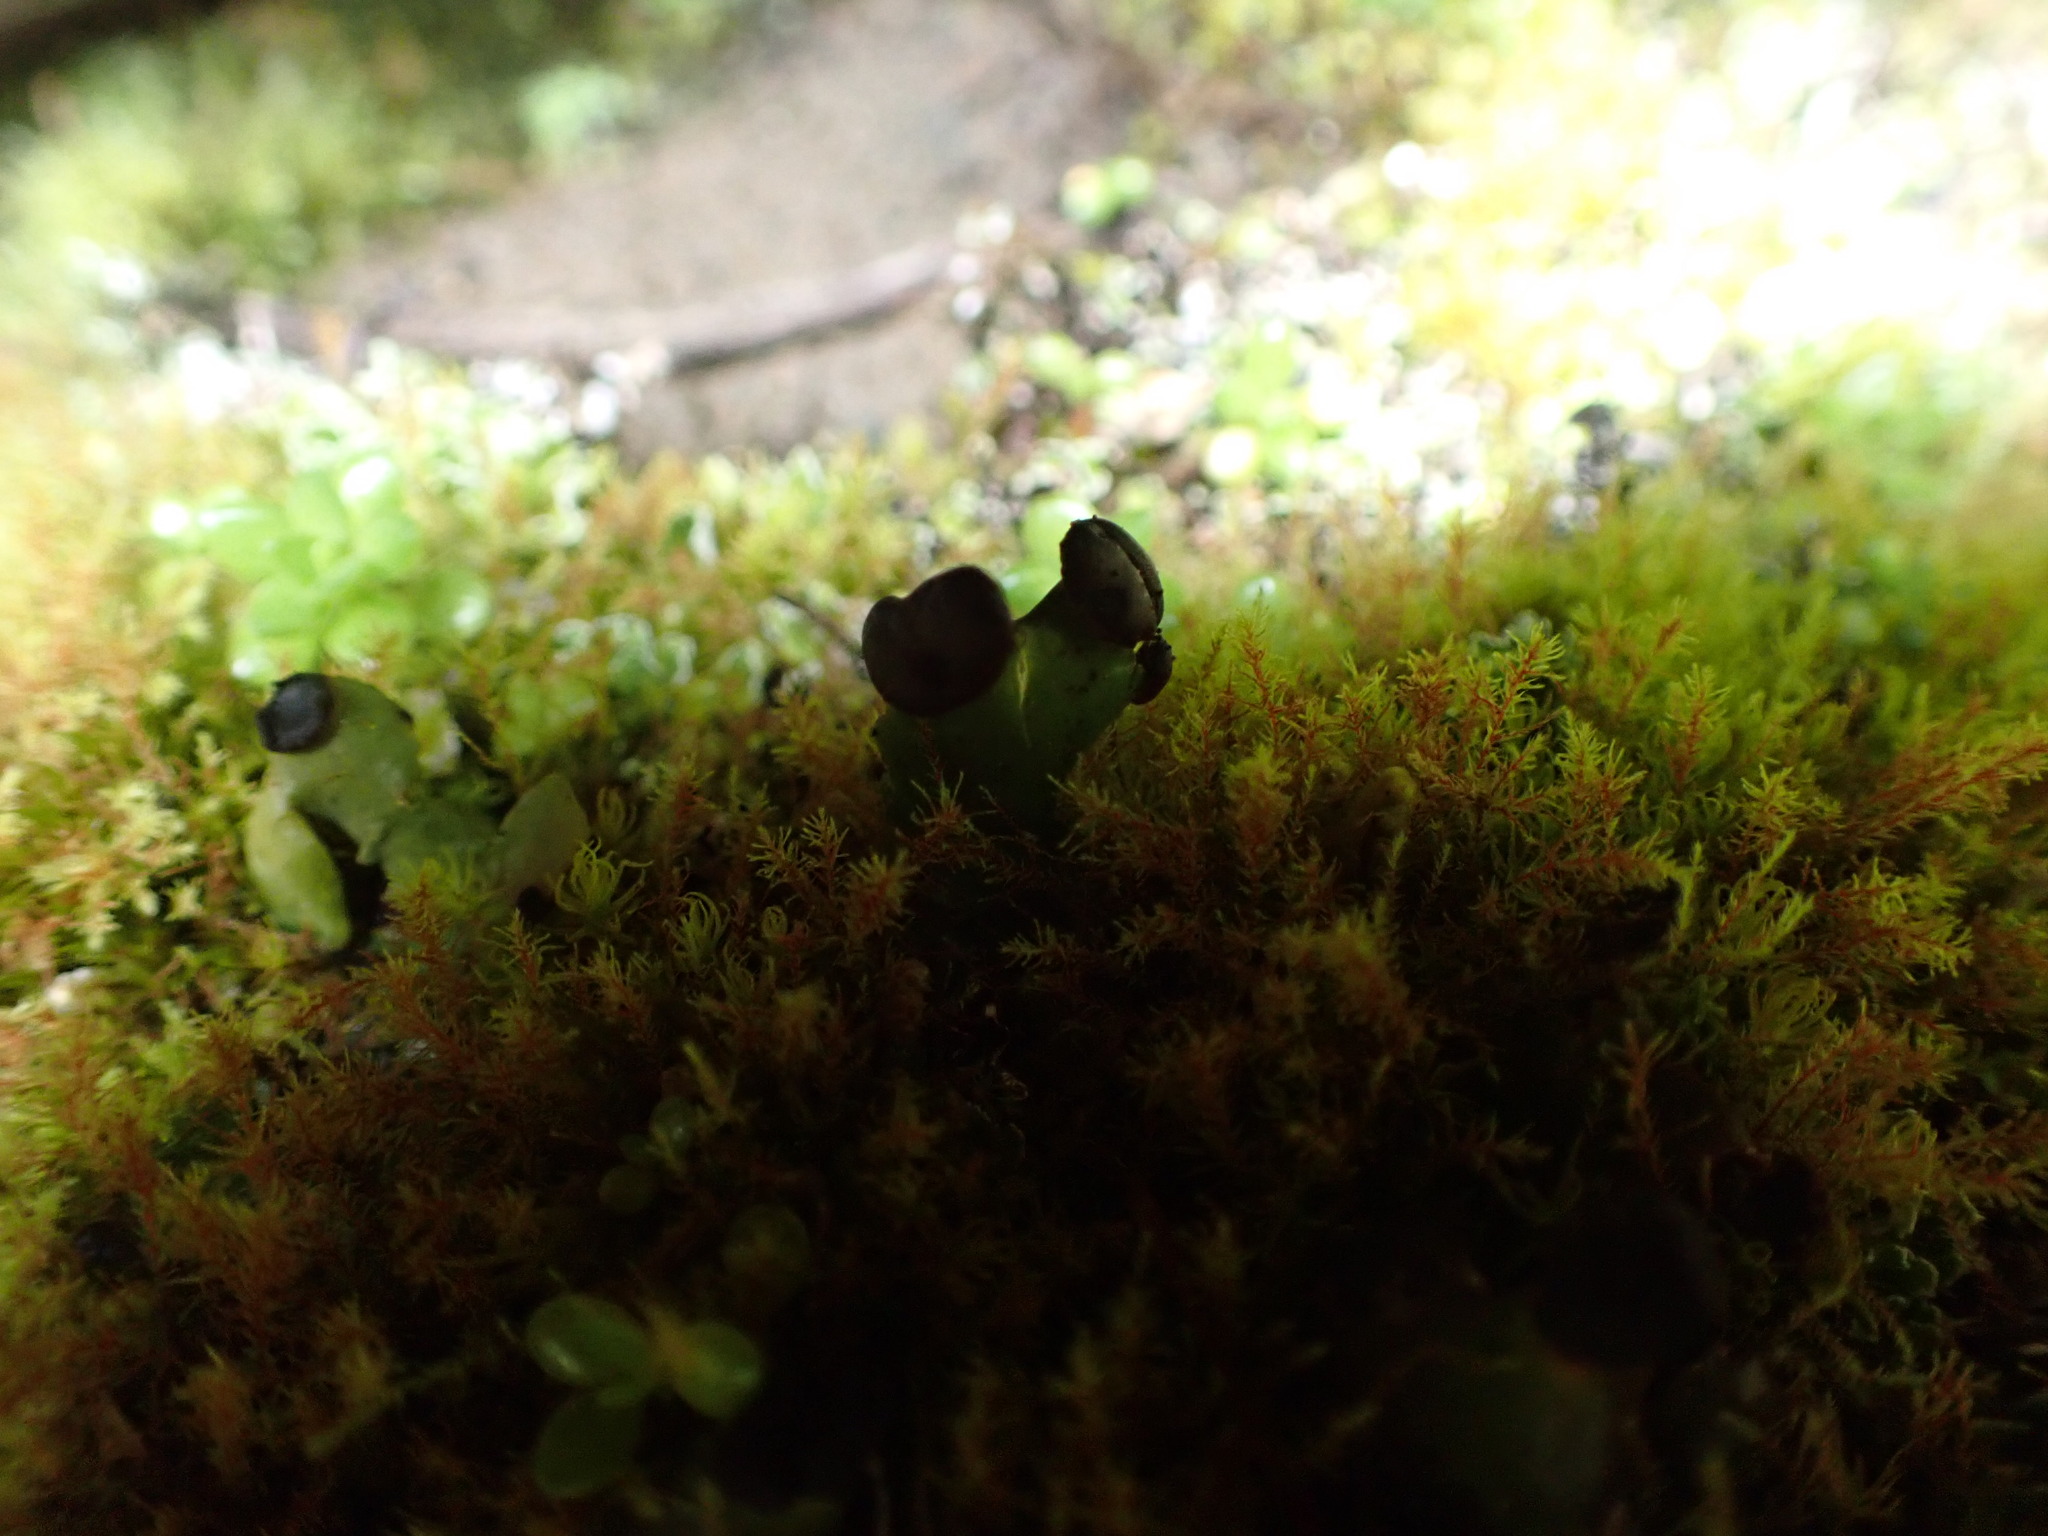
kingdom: Fungi
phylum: Ascomycota
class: Lecanoromycetes
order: Peltigerales
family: Peltigeraceae
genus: Peltigera
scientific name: Peltigera venosa
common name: Pixie gowns lichen
